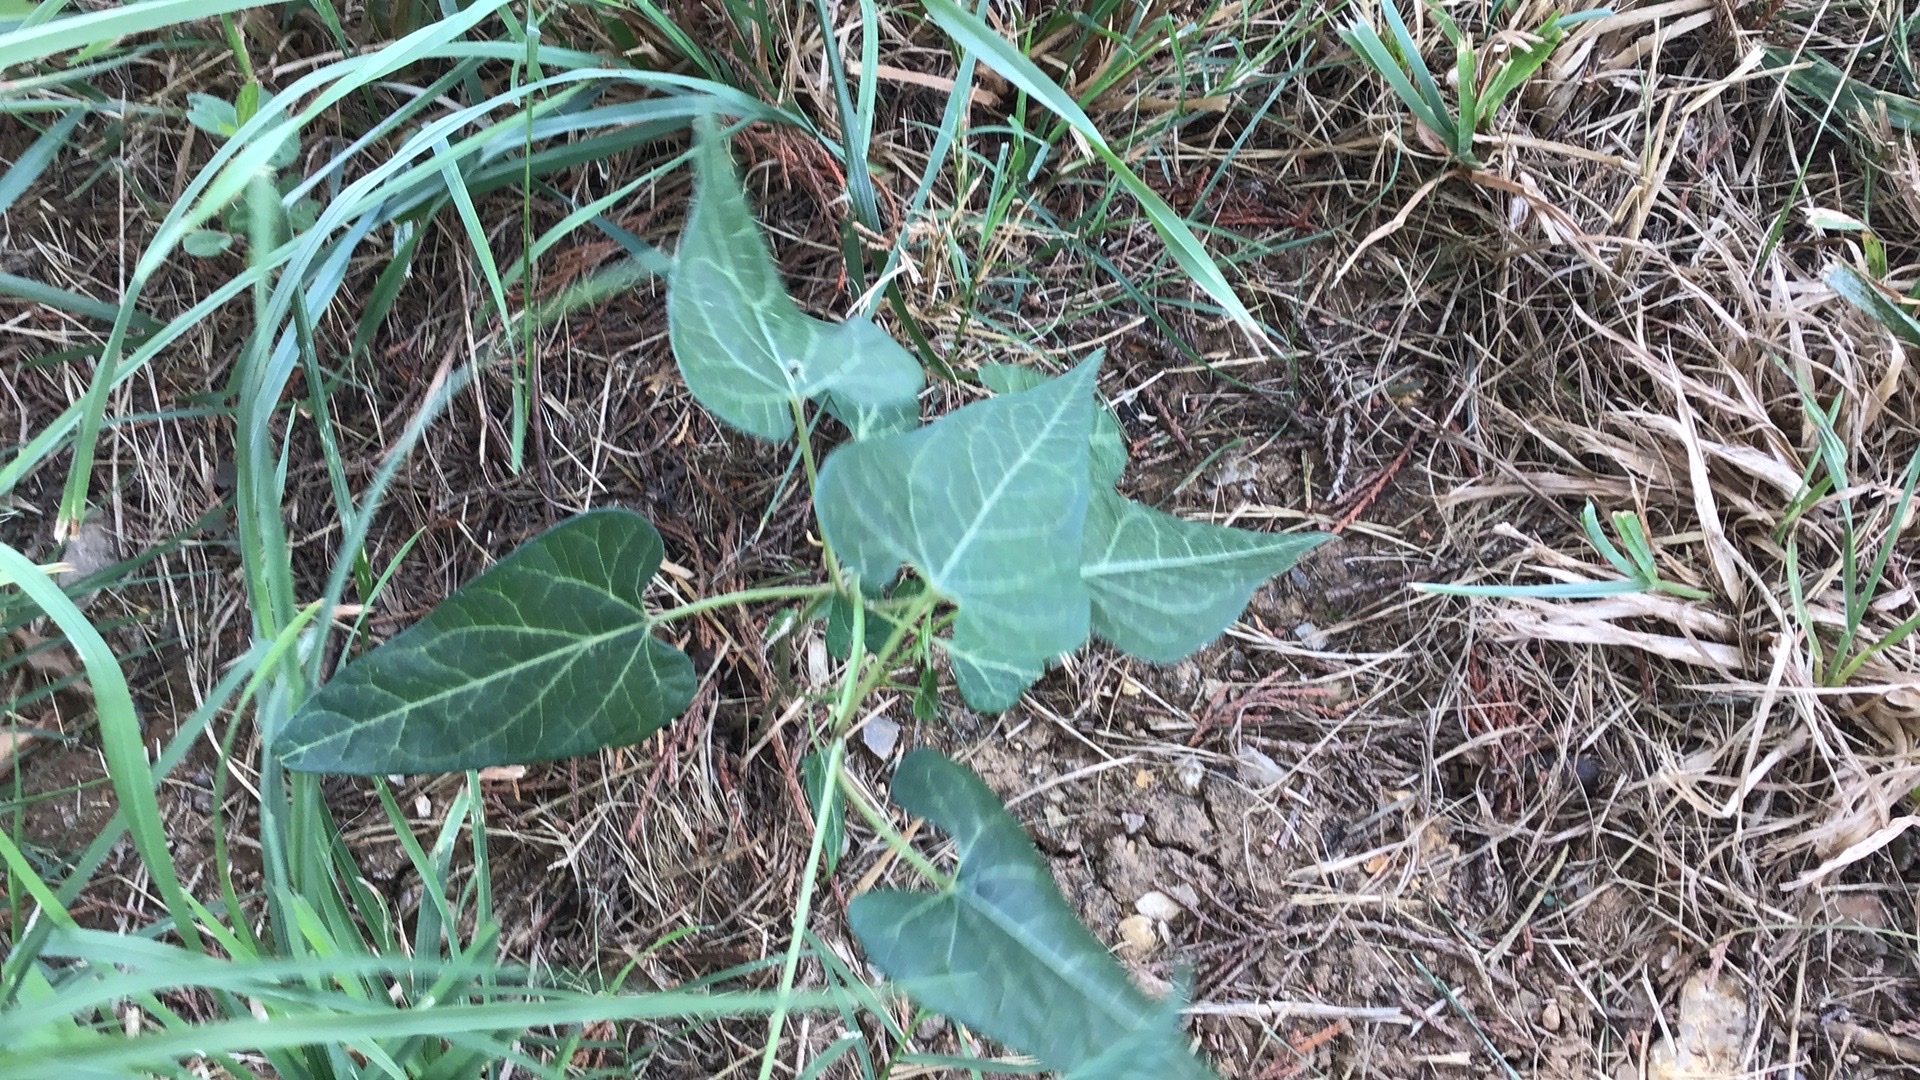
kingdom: Plantae
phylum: Tracheophyta
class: Magnoliopsida
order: Gentianales
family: Apocynaceae
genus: Cynanchum
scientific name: Cynanchum laeve
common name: Sandvine
